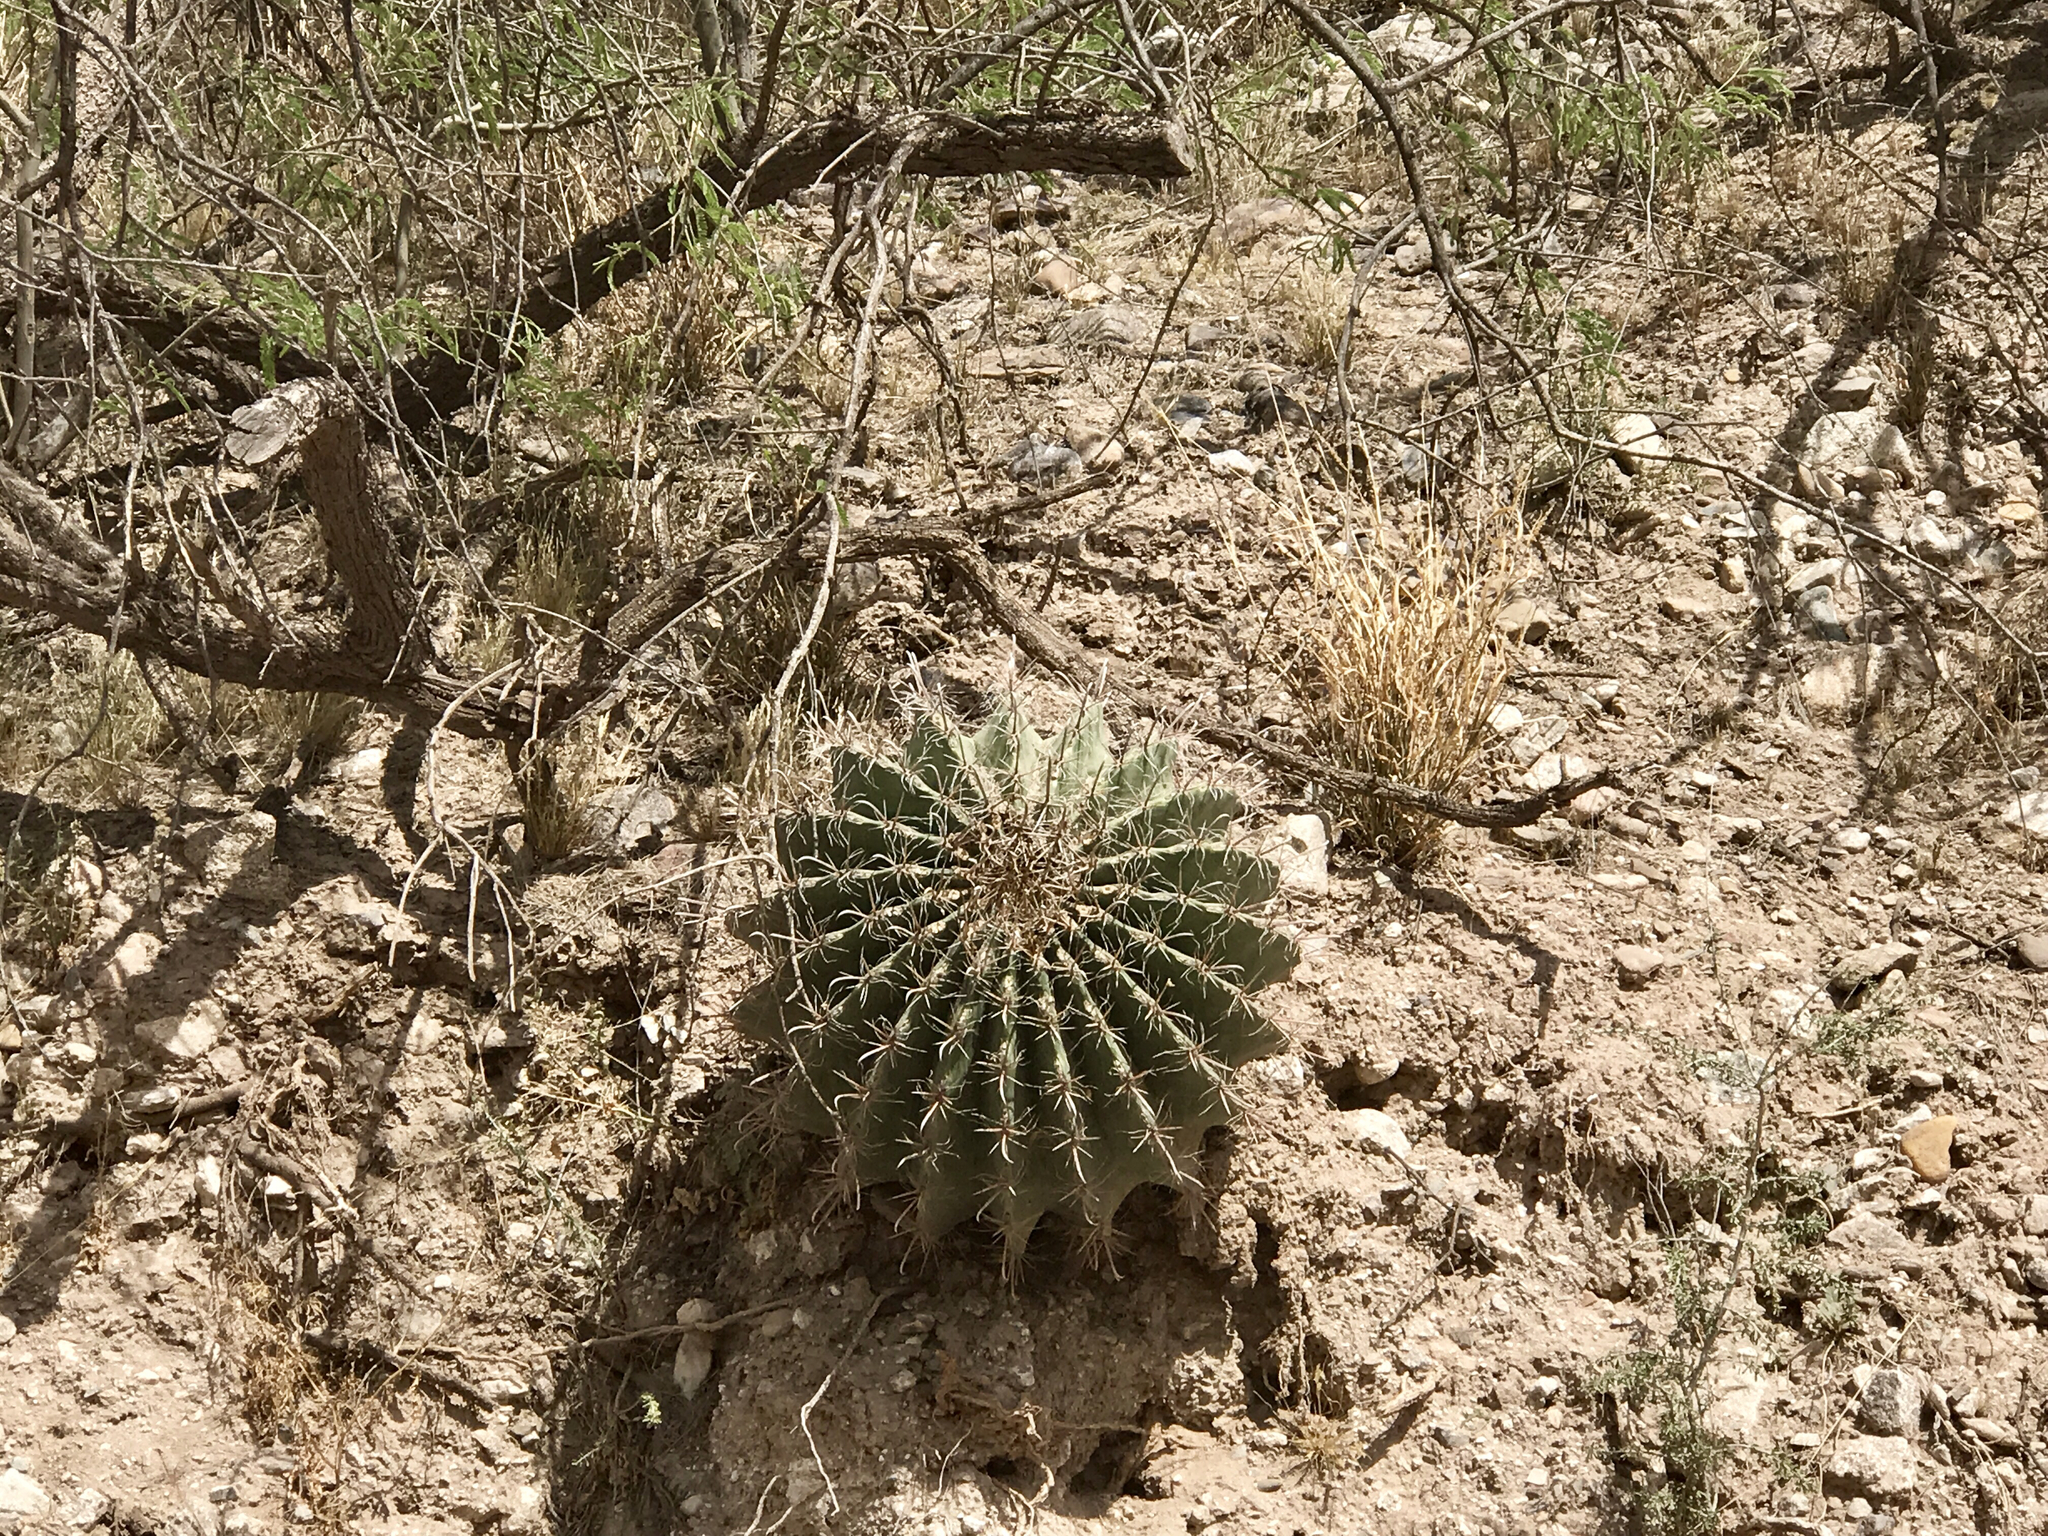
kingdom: Plantae
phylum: Tracheophyta
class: Magnoliopsida
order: Caryophyllales
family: Cactaceae
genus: Ferocactus
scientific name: Ferocactus wislizeni
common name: Candy barrel cactus
